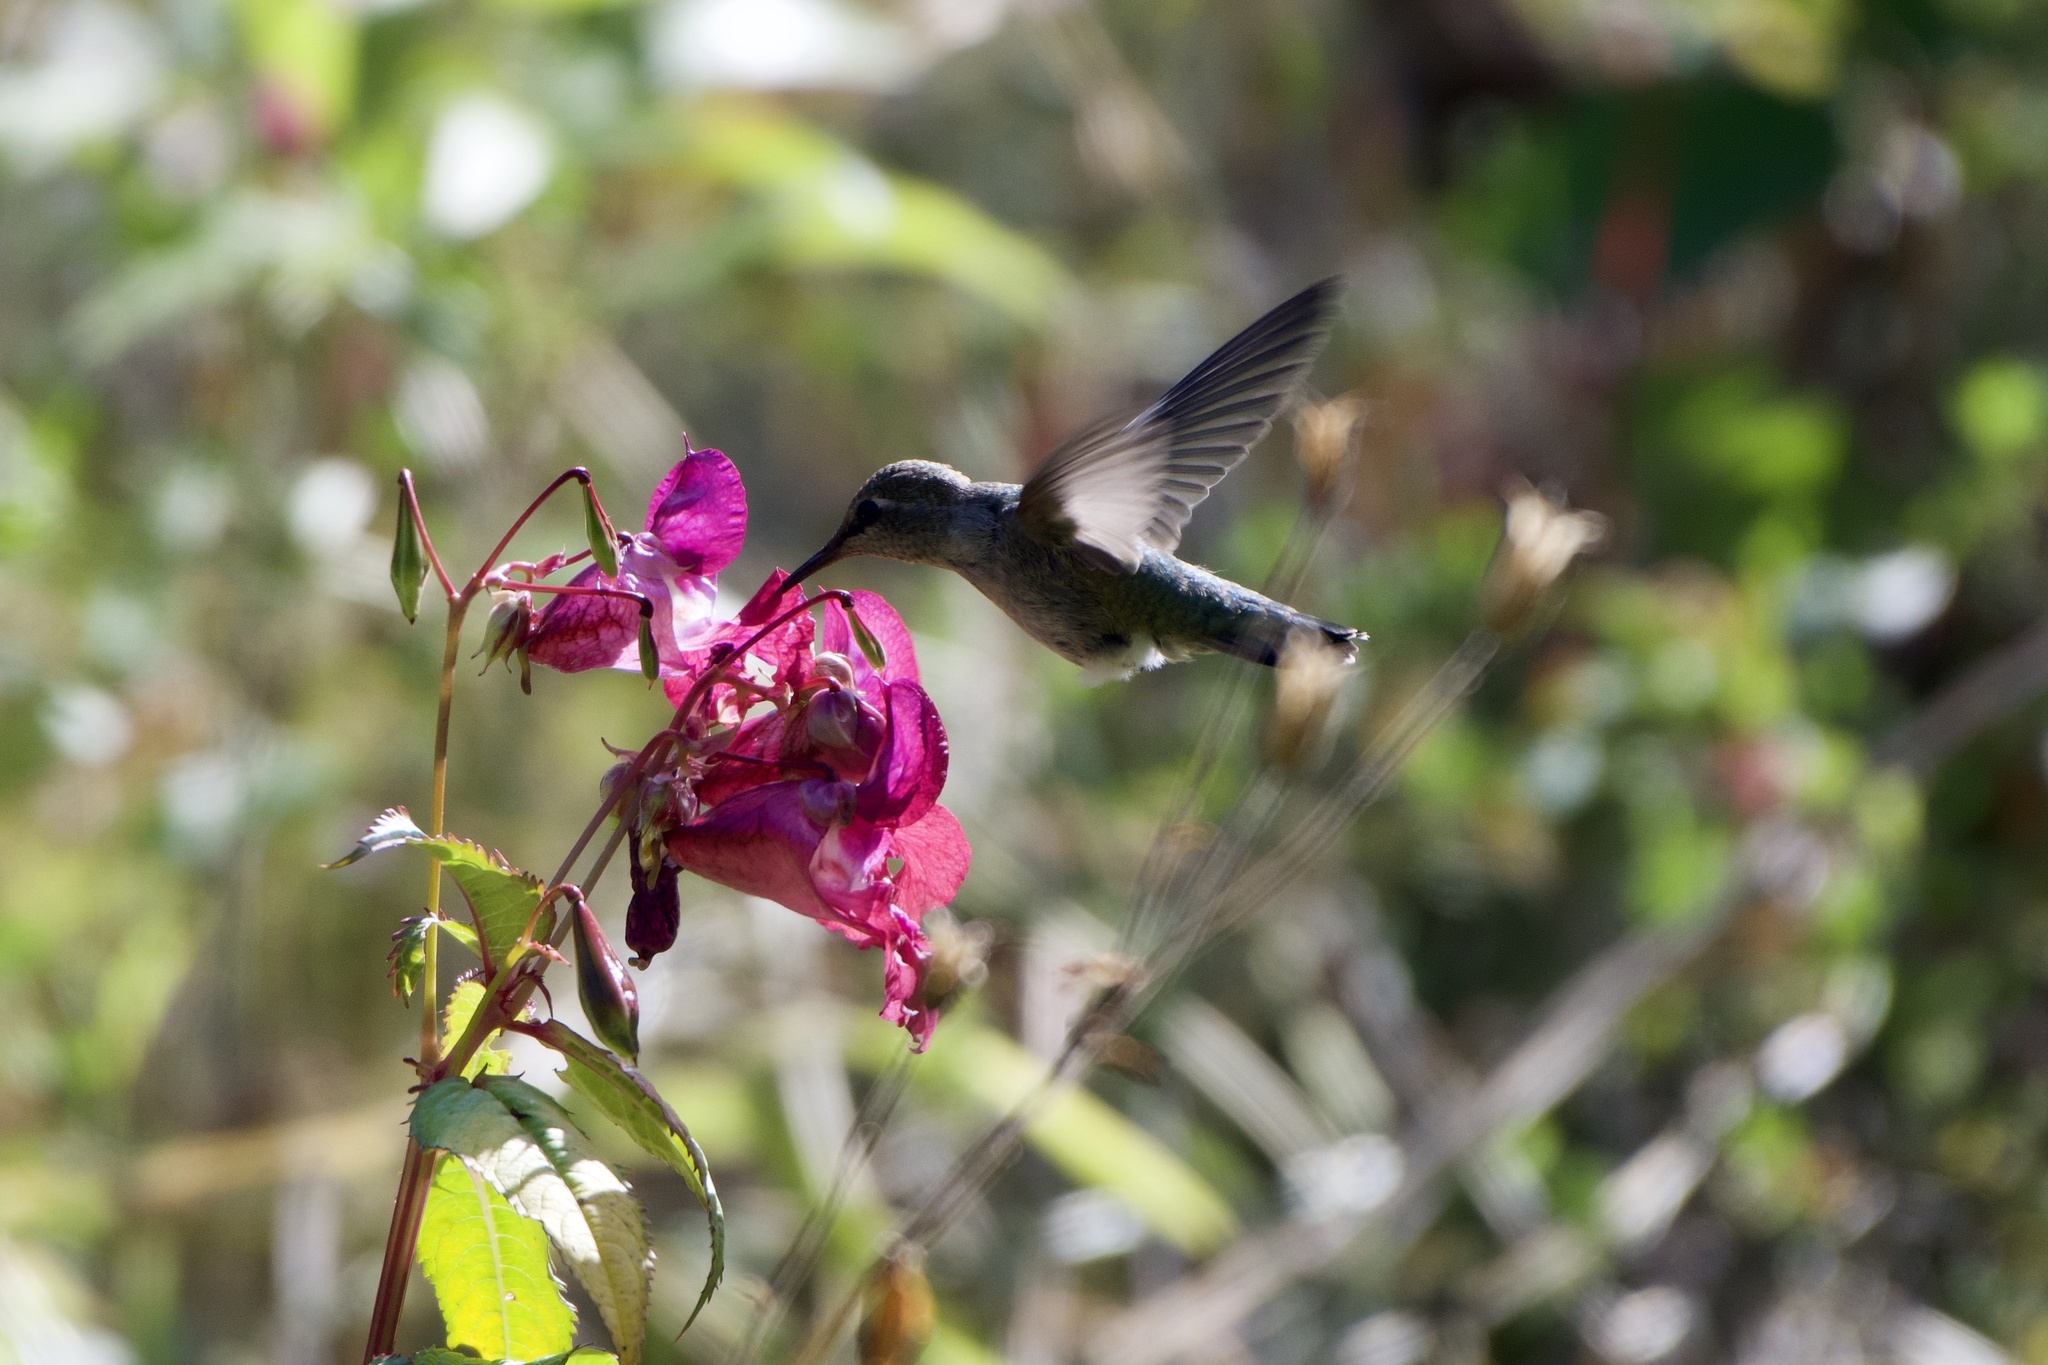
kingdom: Animalia
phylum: Chordata
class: Aves
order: Apodiformes
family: Trochilidae
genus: Calypte
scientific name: Calypte anna
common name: Anna's hummingbird
